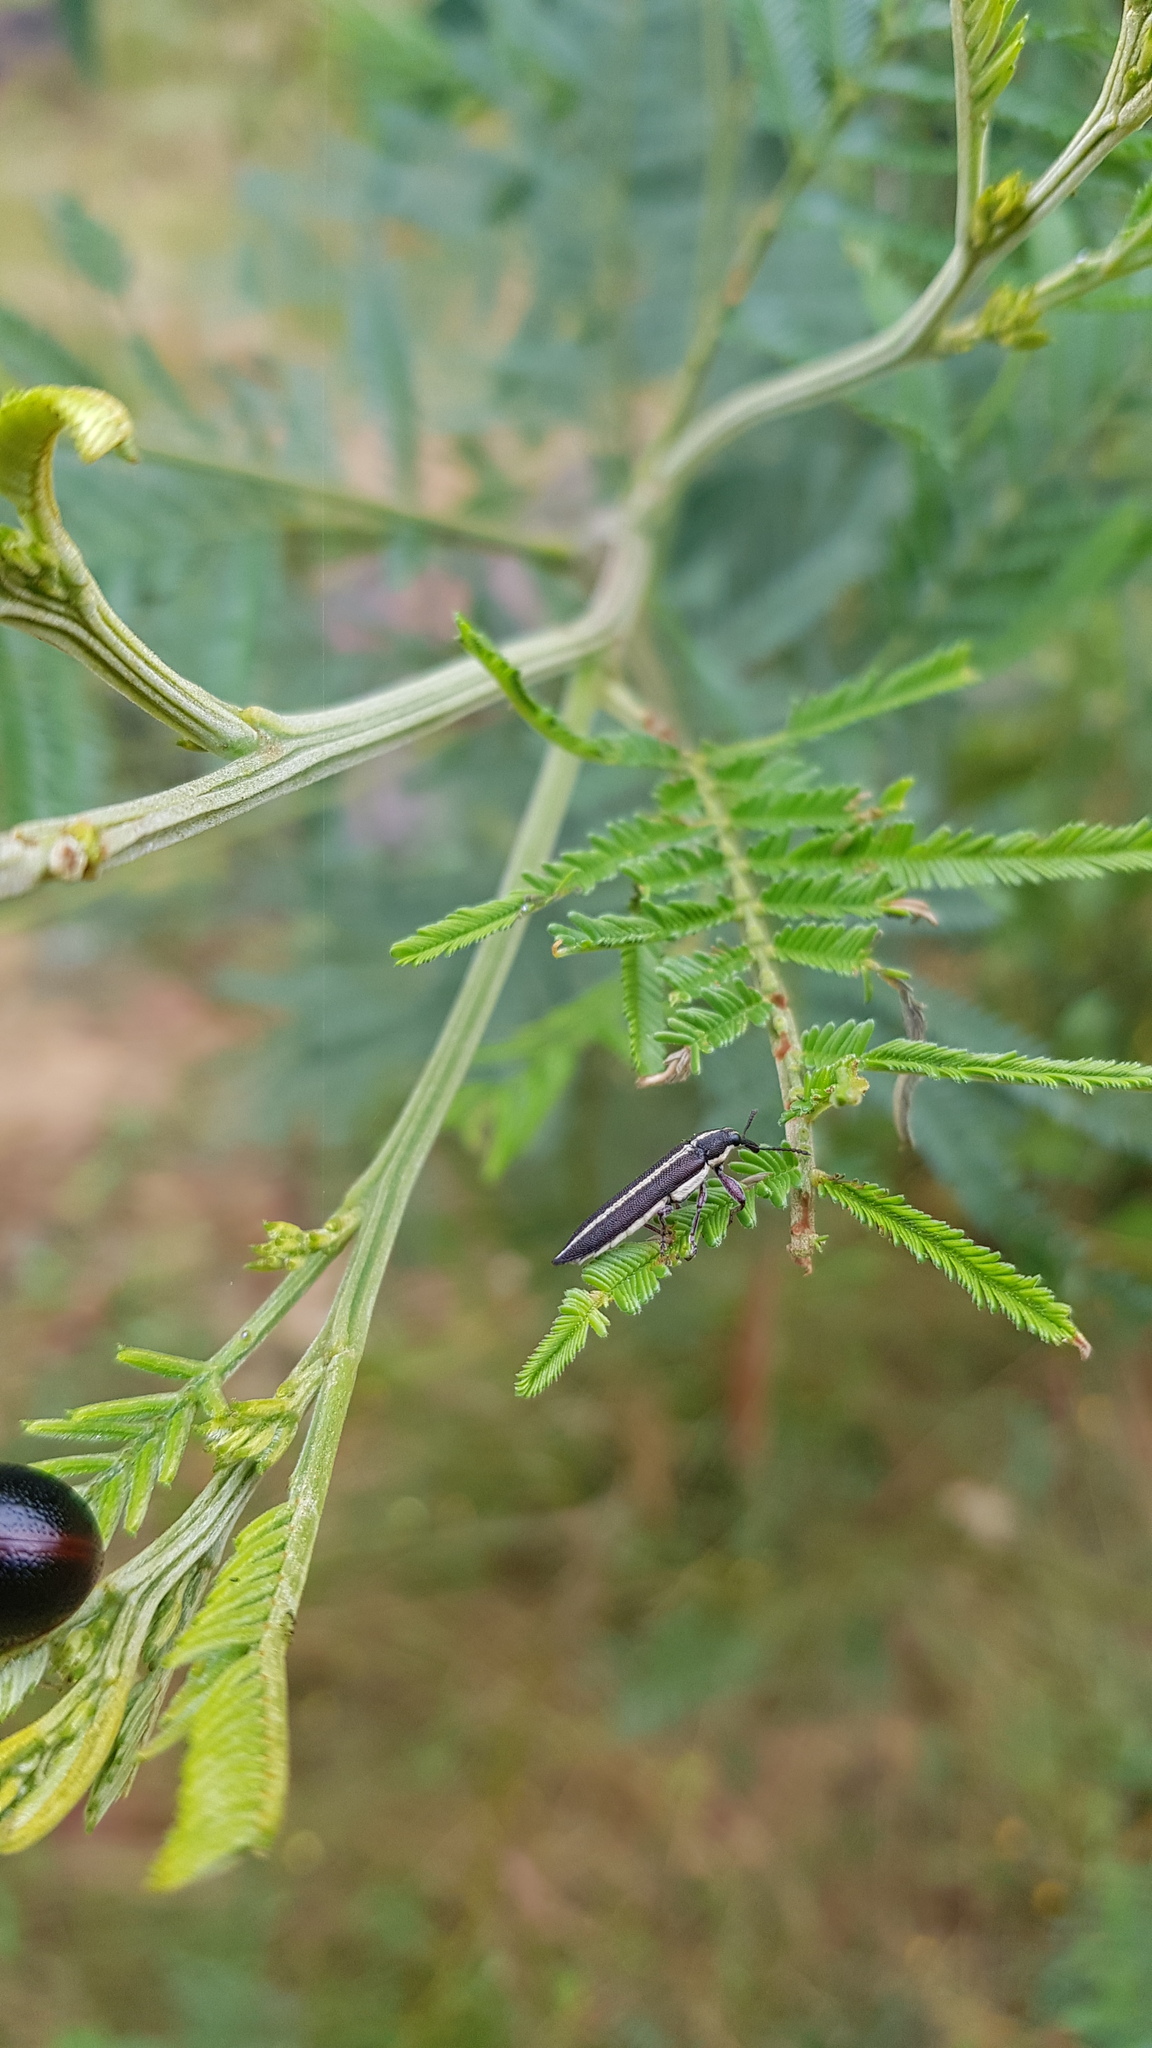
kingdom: Animalia
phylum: Arthropoda
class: Insecta
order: Coleoptera
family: Belidae
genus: Rhinotia
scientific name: Rhinotia suturalis
